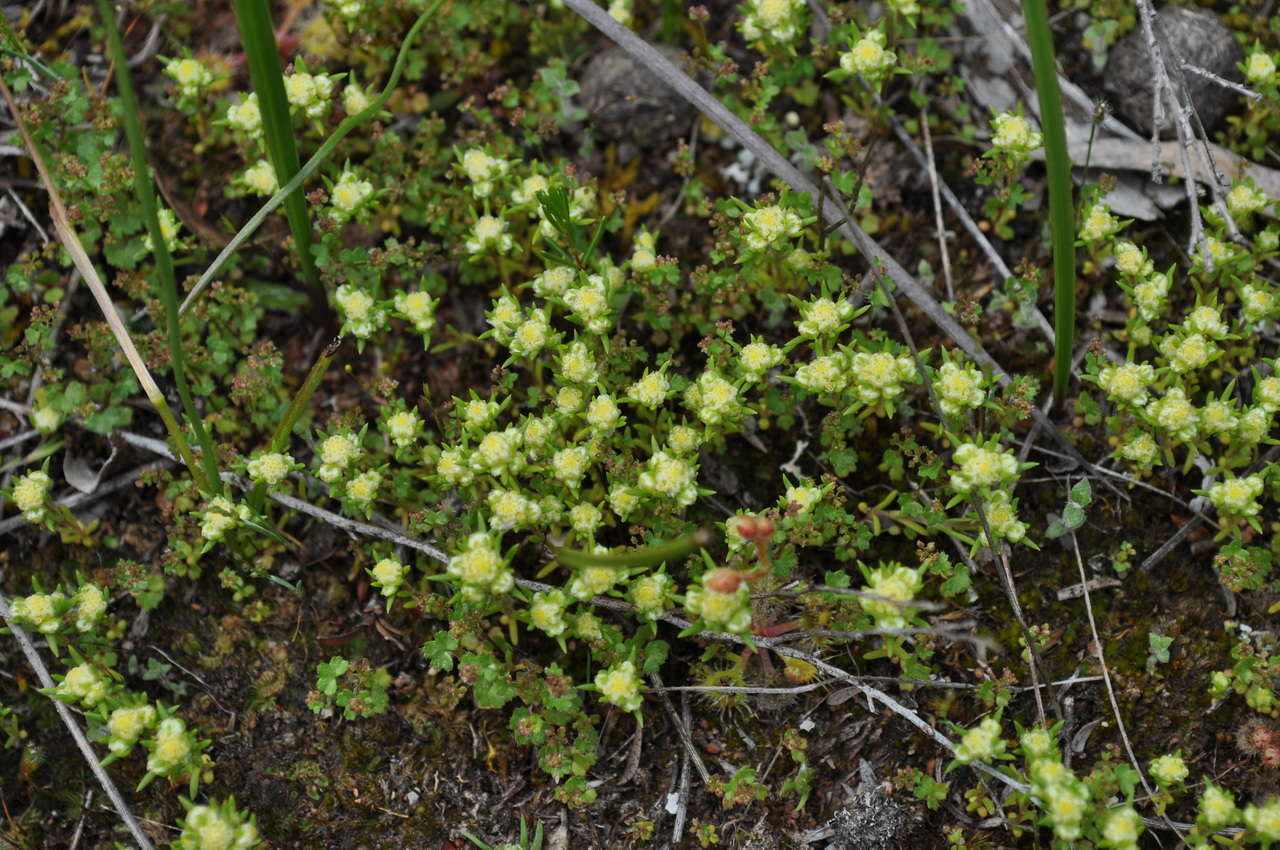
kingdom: Plantae
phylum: Tracheophyta
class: Magnoliopsida
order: Asterales
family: Asteraceae
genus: Siloxerus
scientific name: Siloxerus multiflorus
